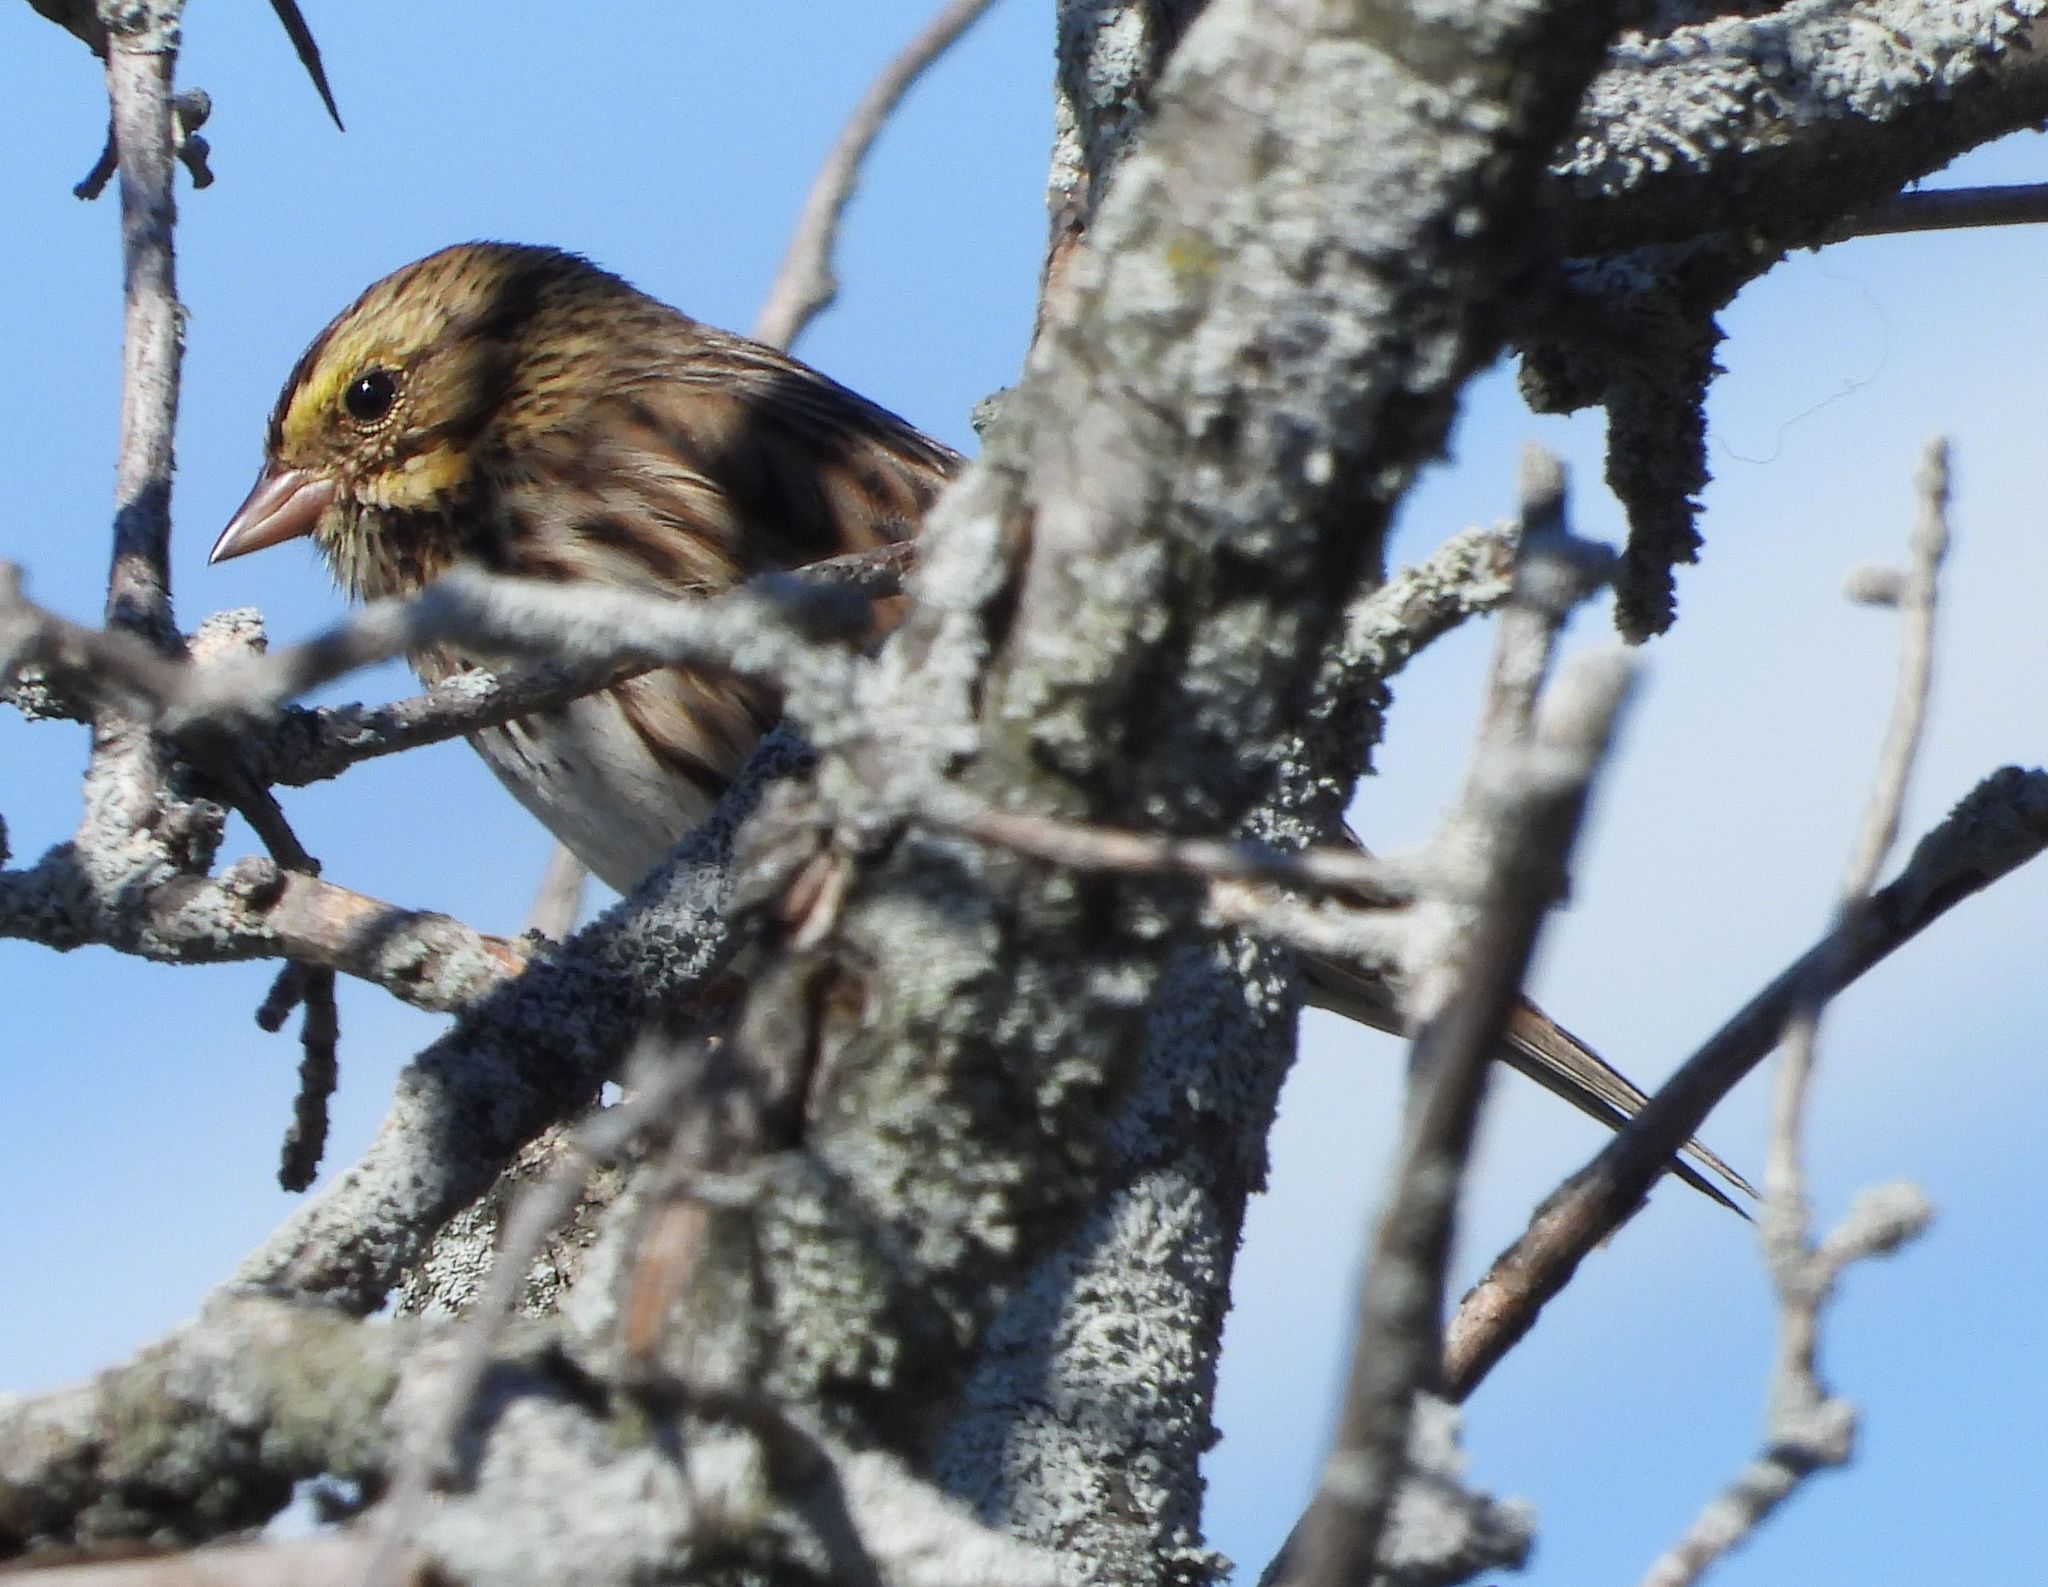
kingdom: Animalia
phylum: Chordata
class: Aves
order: Passeriformes
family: Passerellidae
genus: Passerculus
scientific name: Passerculus sandwichensis
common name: Savannah sparrow
